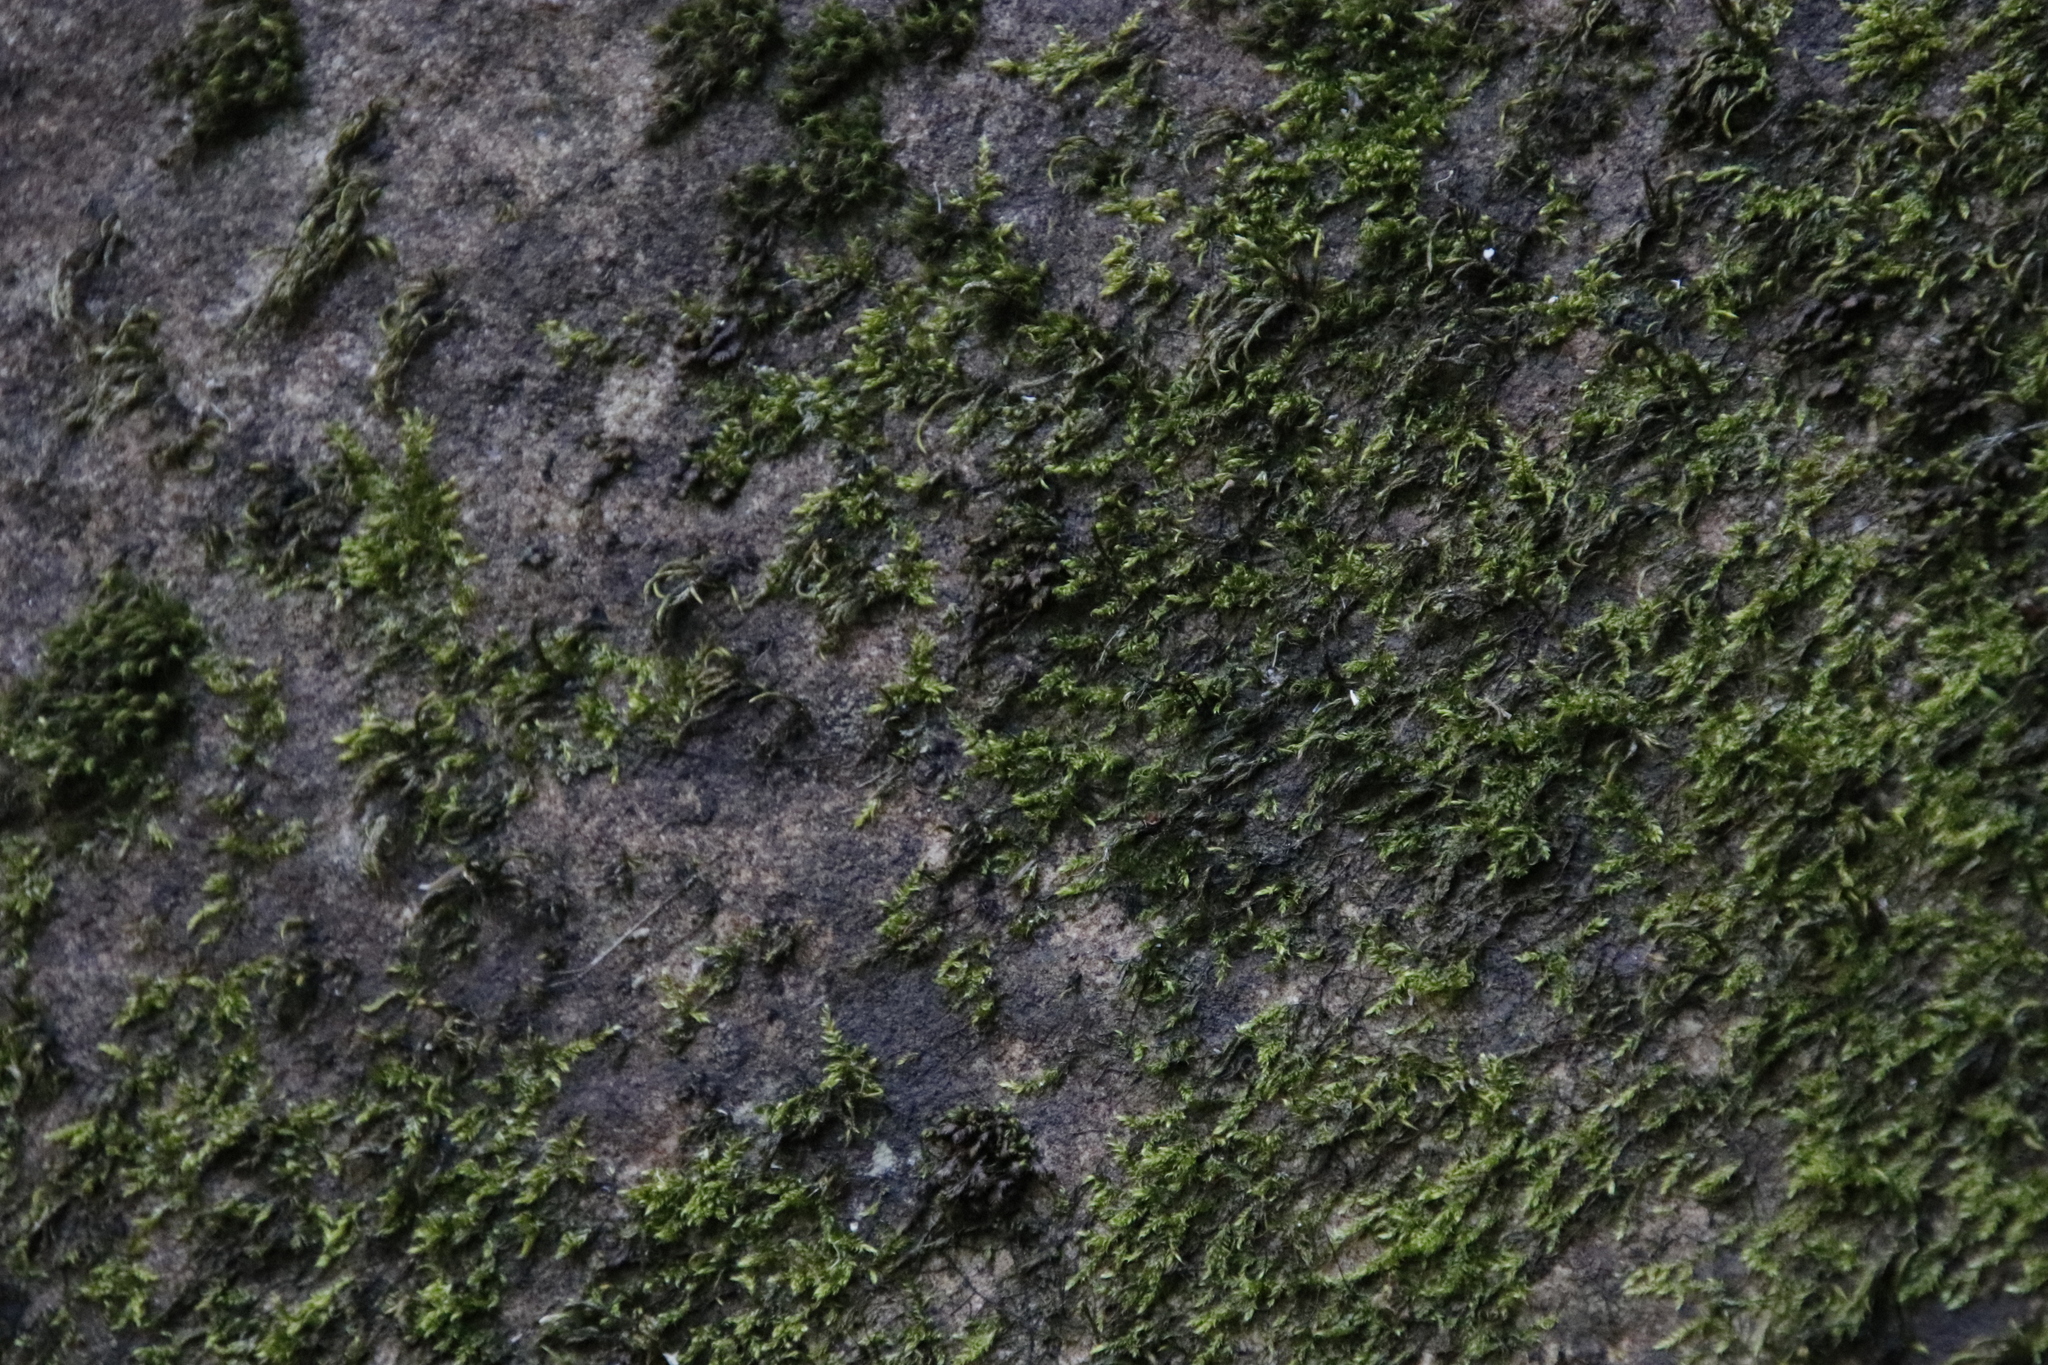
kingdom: Plantae
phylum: Bryophyta
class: Bryopsida
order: Hypnales
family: Lembophyllaceae
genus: Nogopterium
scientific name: Nogopterium gracile
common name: Bird's-foot wing-moss
